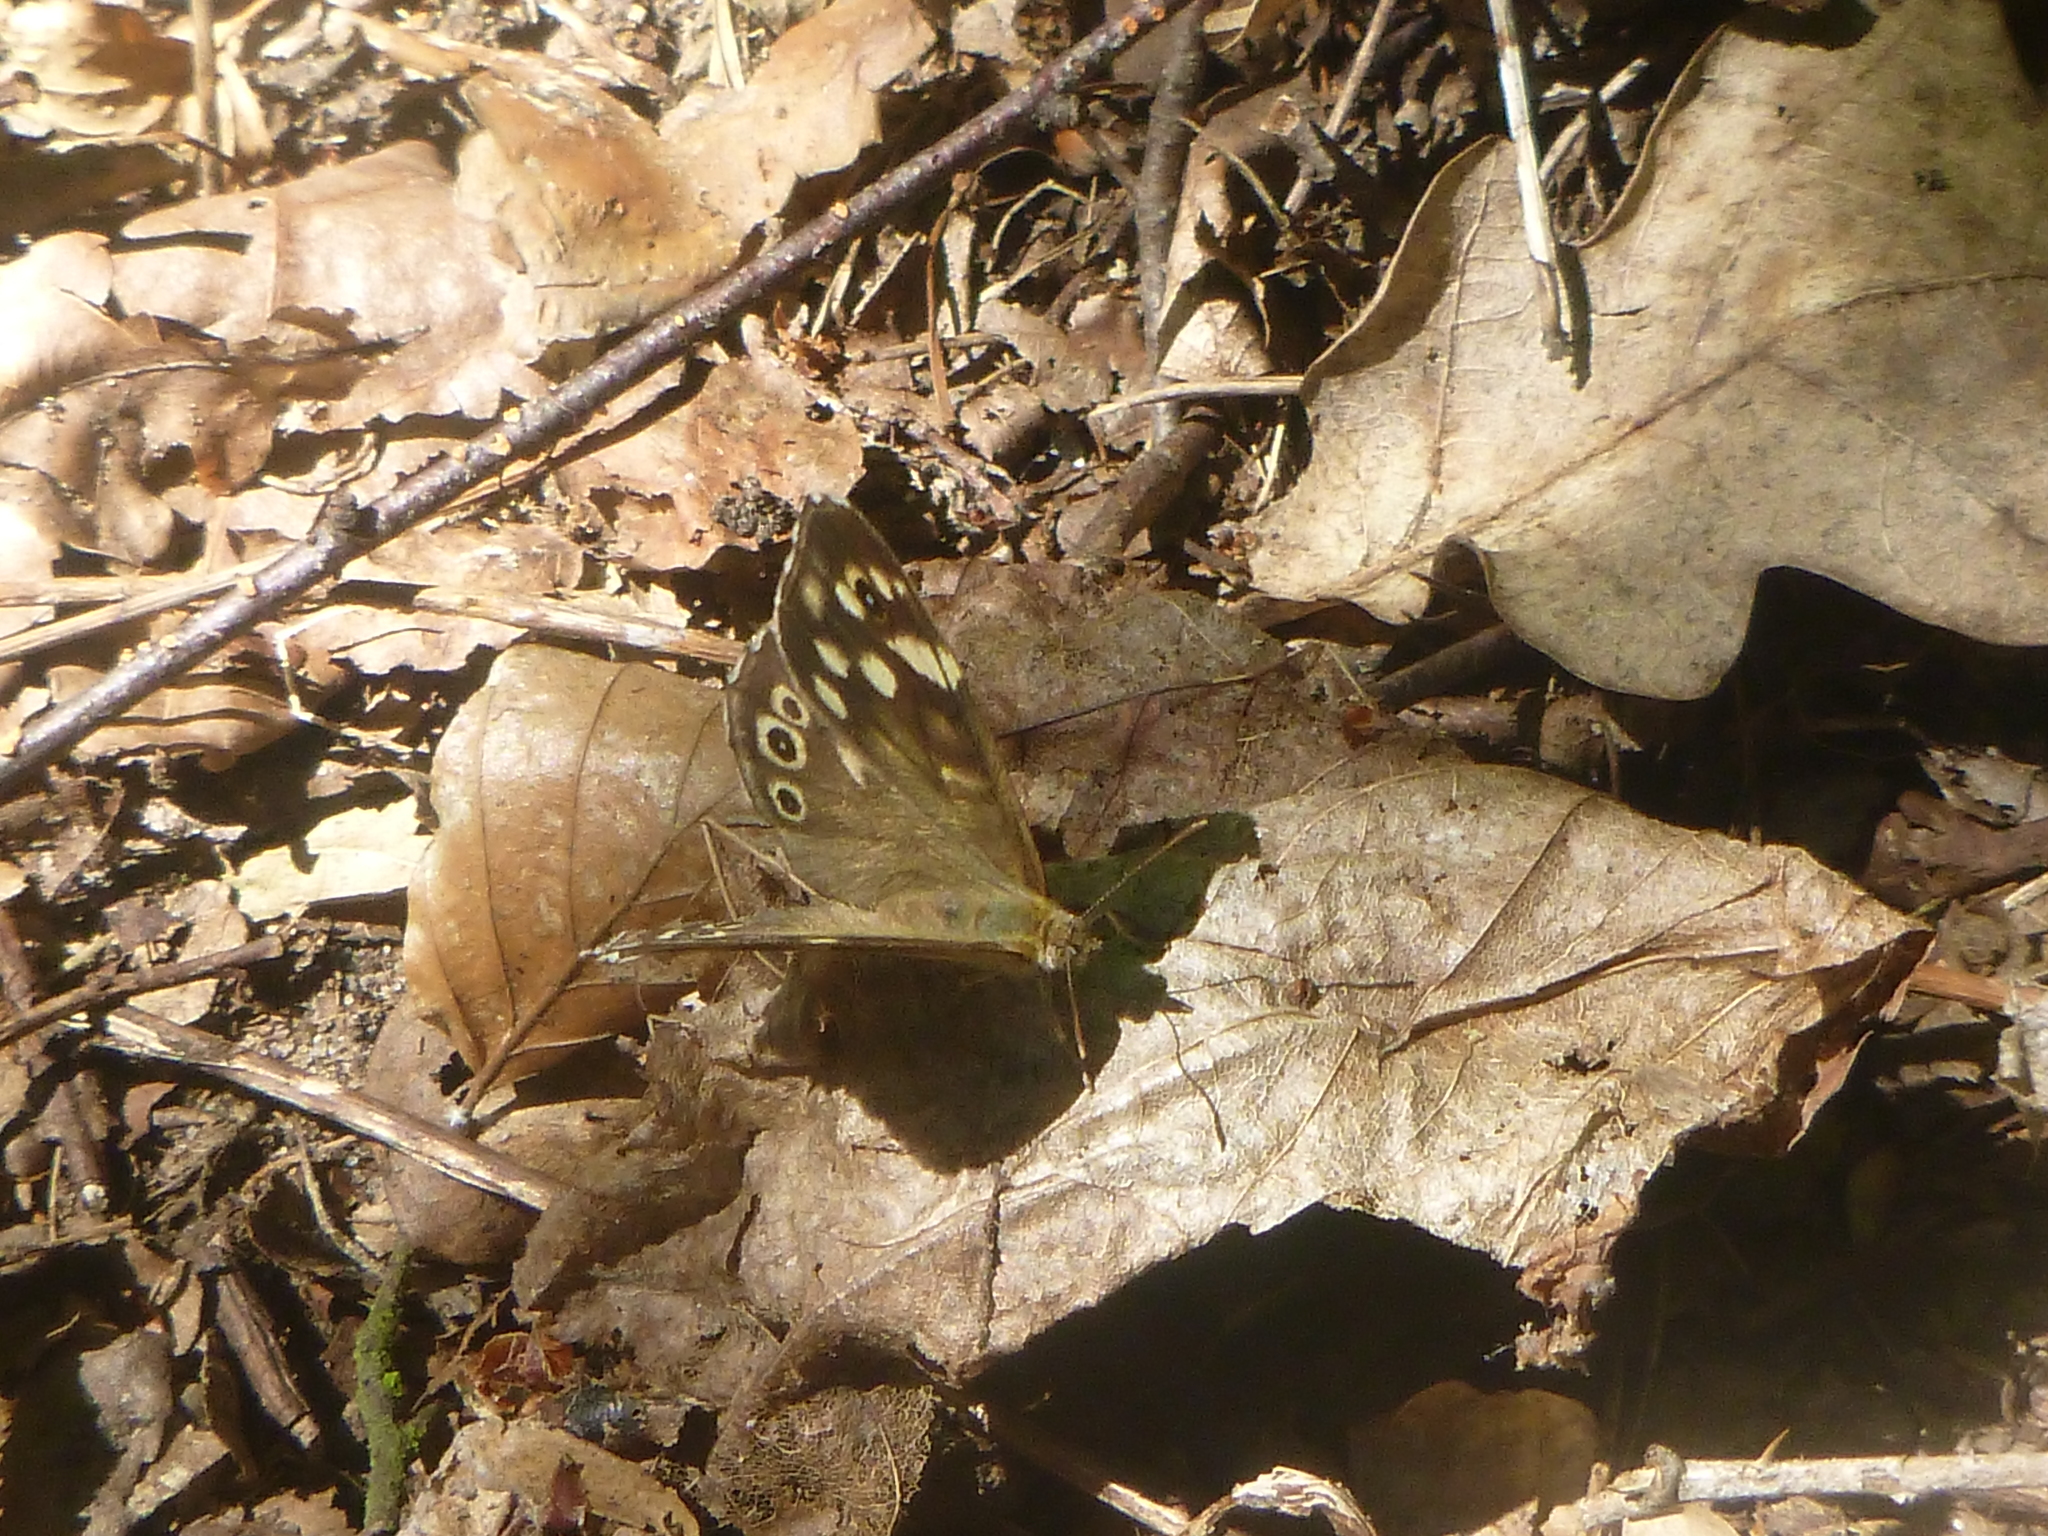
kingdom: Animalia
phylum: Arthropoda
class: Insecta
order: Lepidoptera
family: Nymphalidae
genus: Pararge
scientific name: Pararge aegeria
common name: Speckled wood
